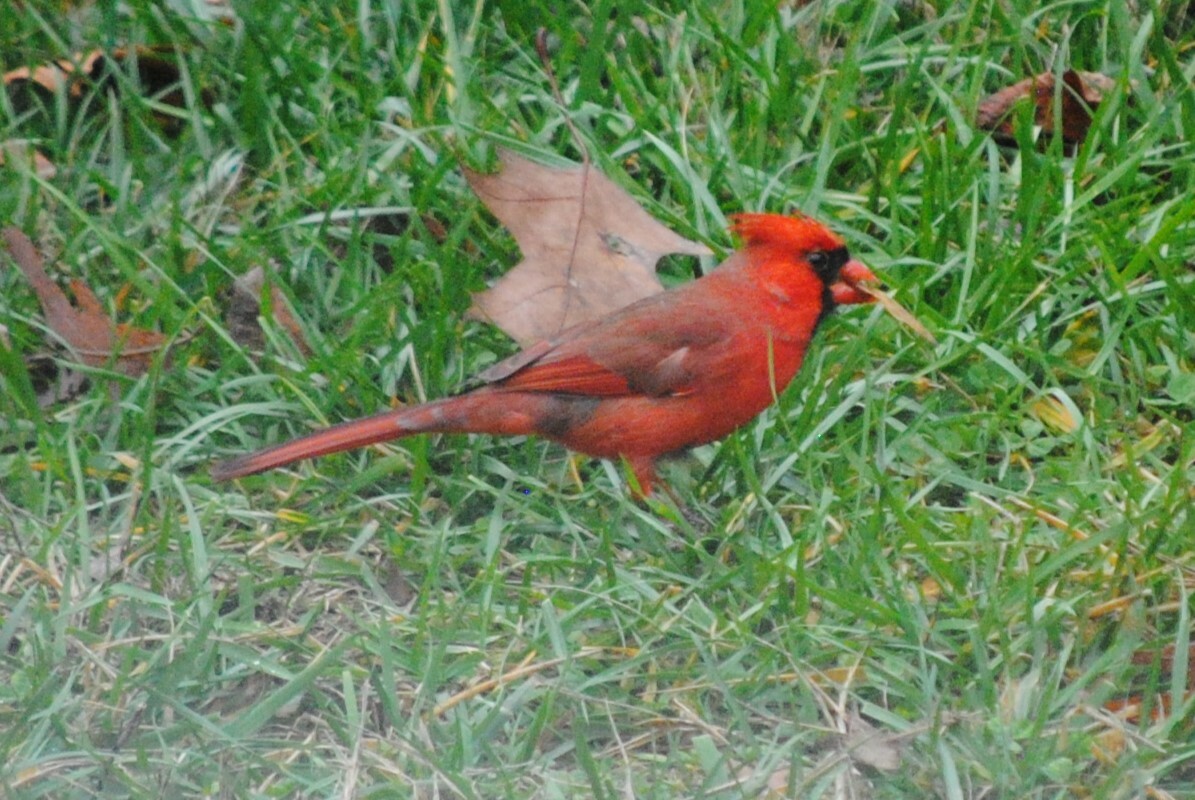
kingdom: Animalia
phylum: Chordata
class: Aves
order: Passeriformes
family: Cardinalidae
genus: Cardinalis
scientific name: Cardinalis cardinalis
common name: Northern cardinal
